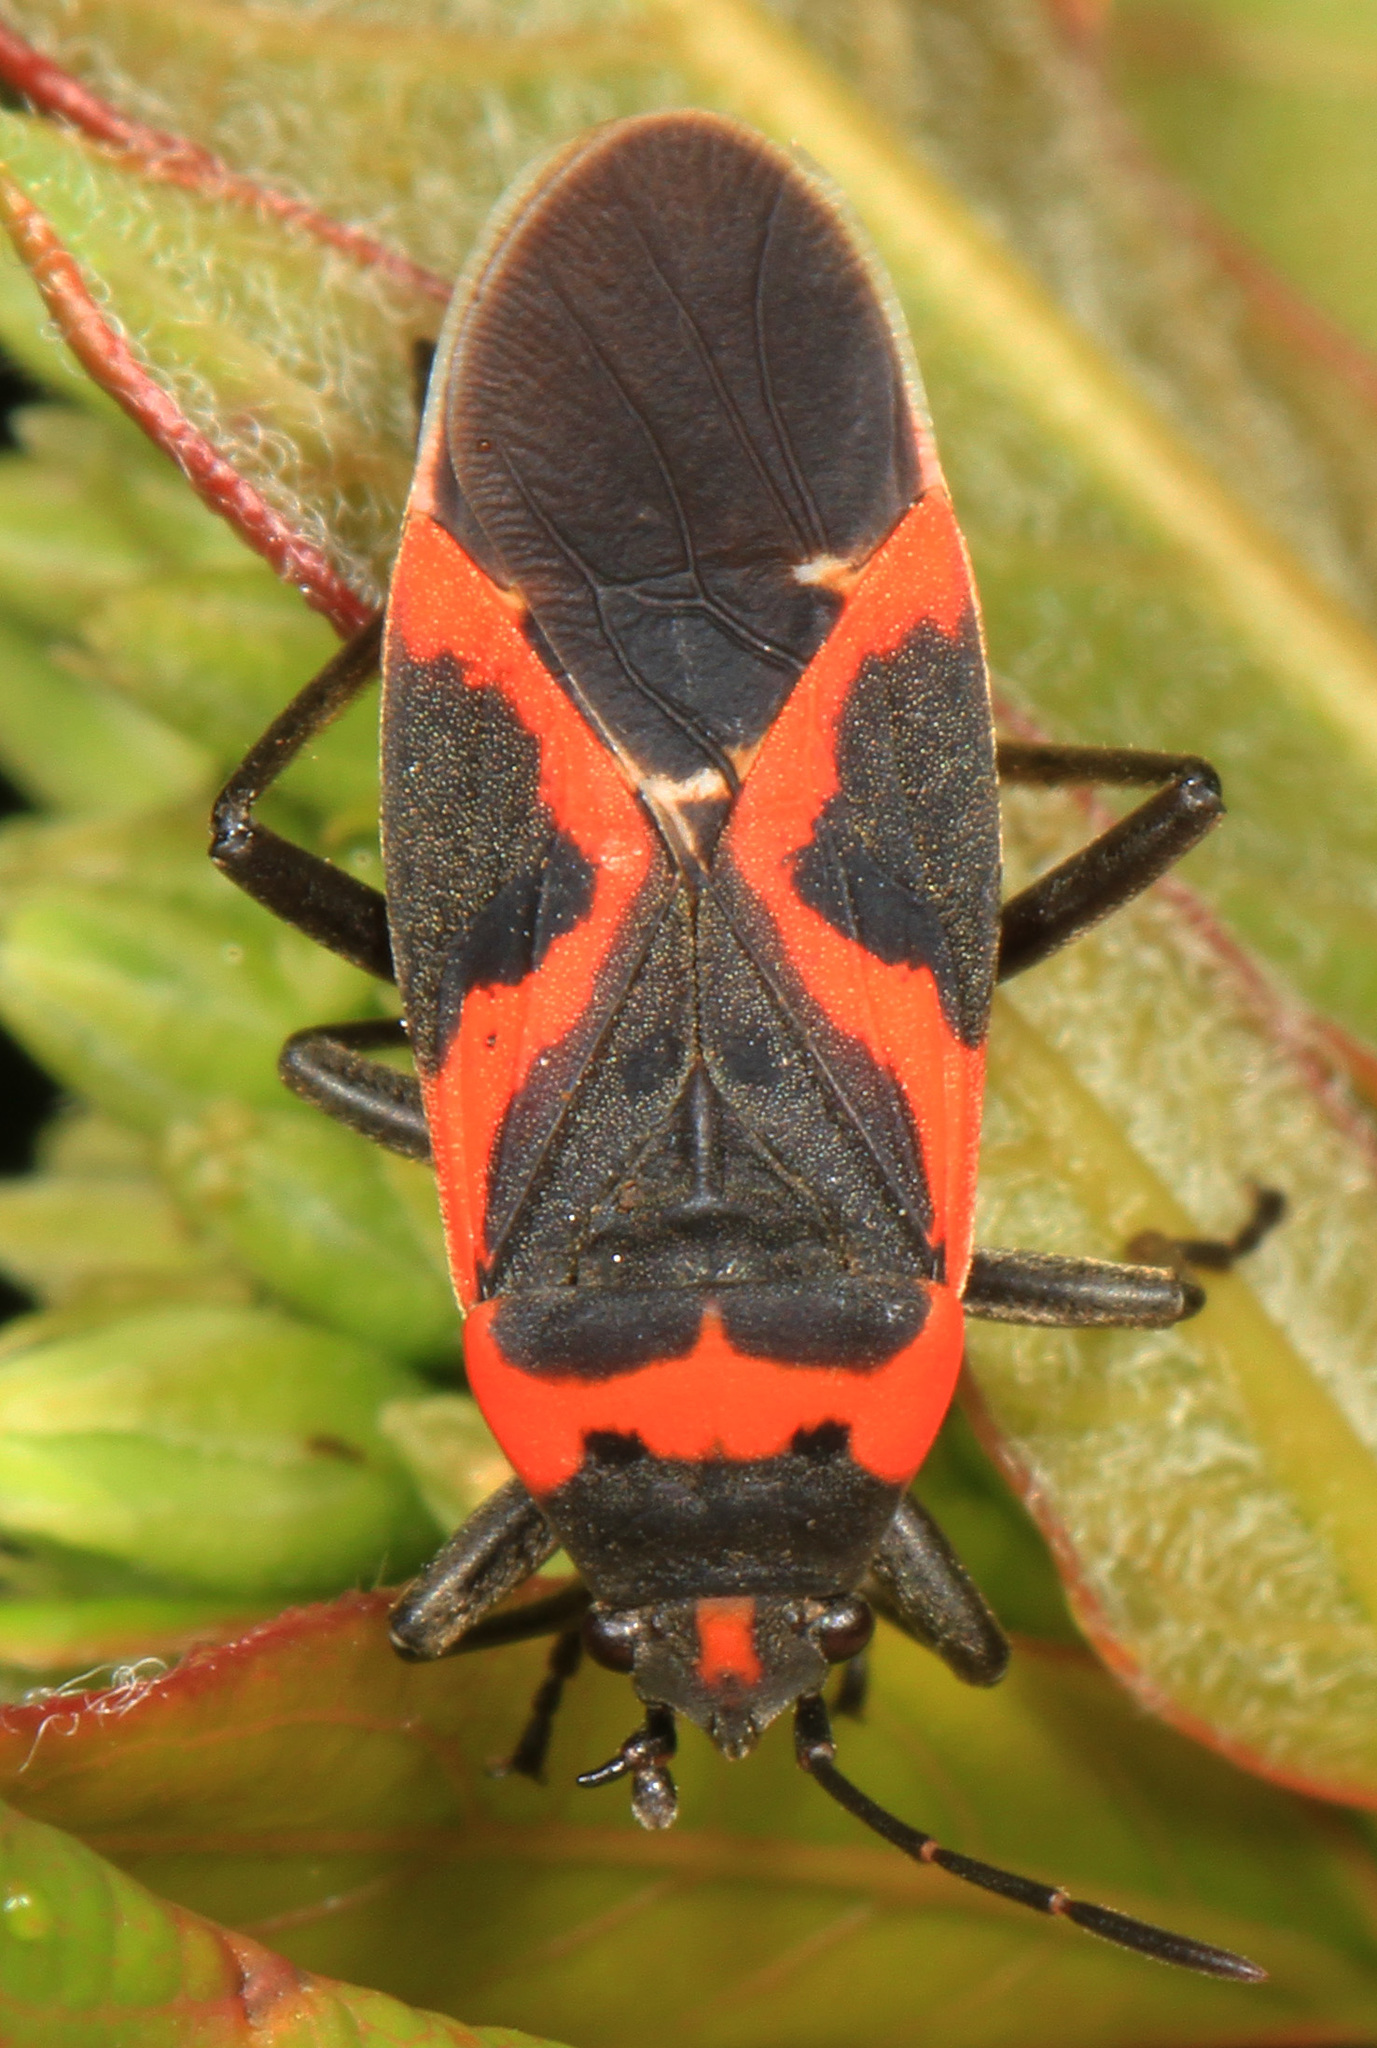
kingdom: Animalia
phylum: Arthropoda
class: Insecta
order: Hemiptera
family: Lygaeidae
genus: Lygaeus
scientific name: Lygaeus kalmii
